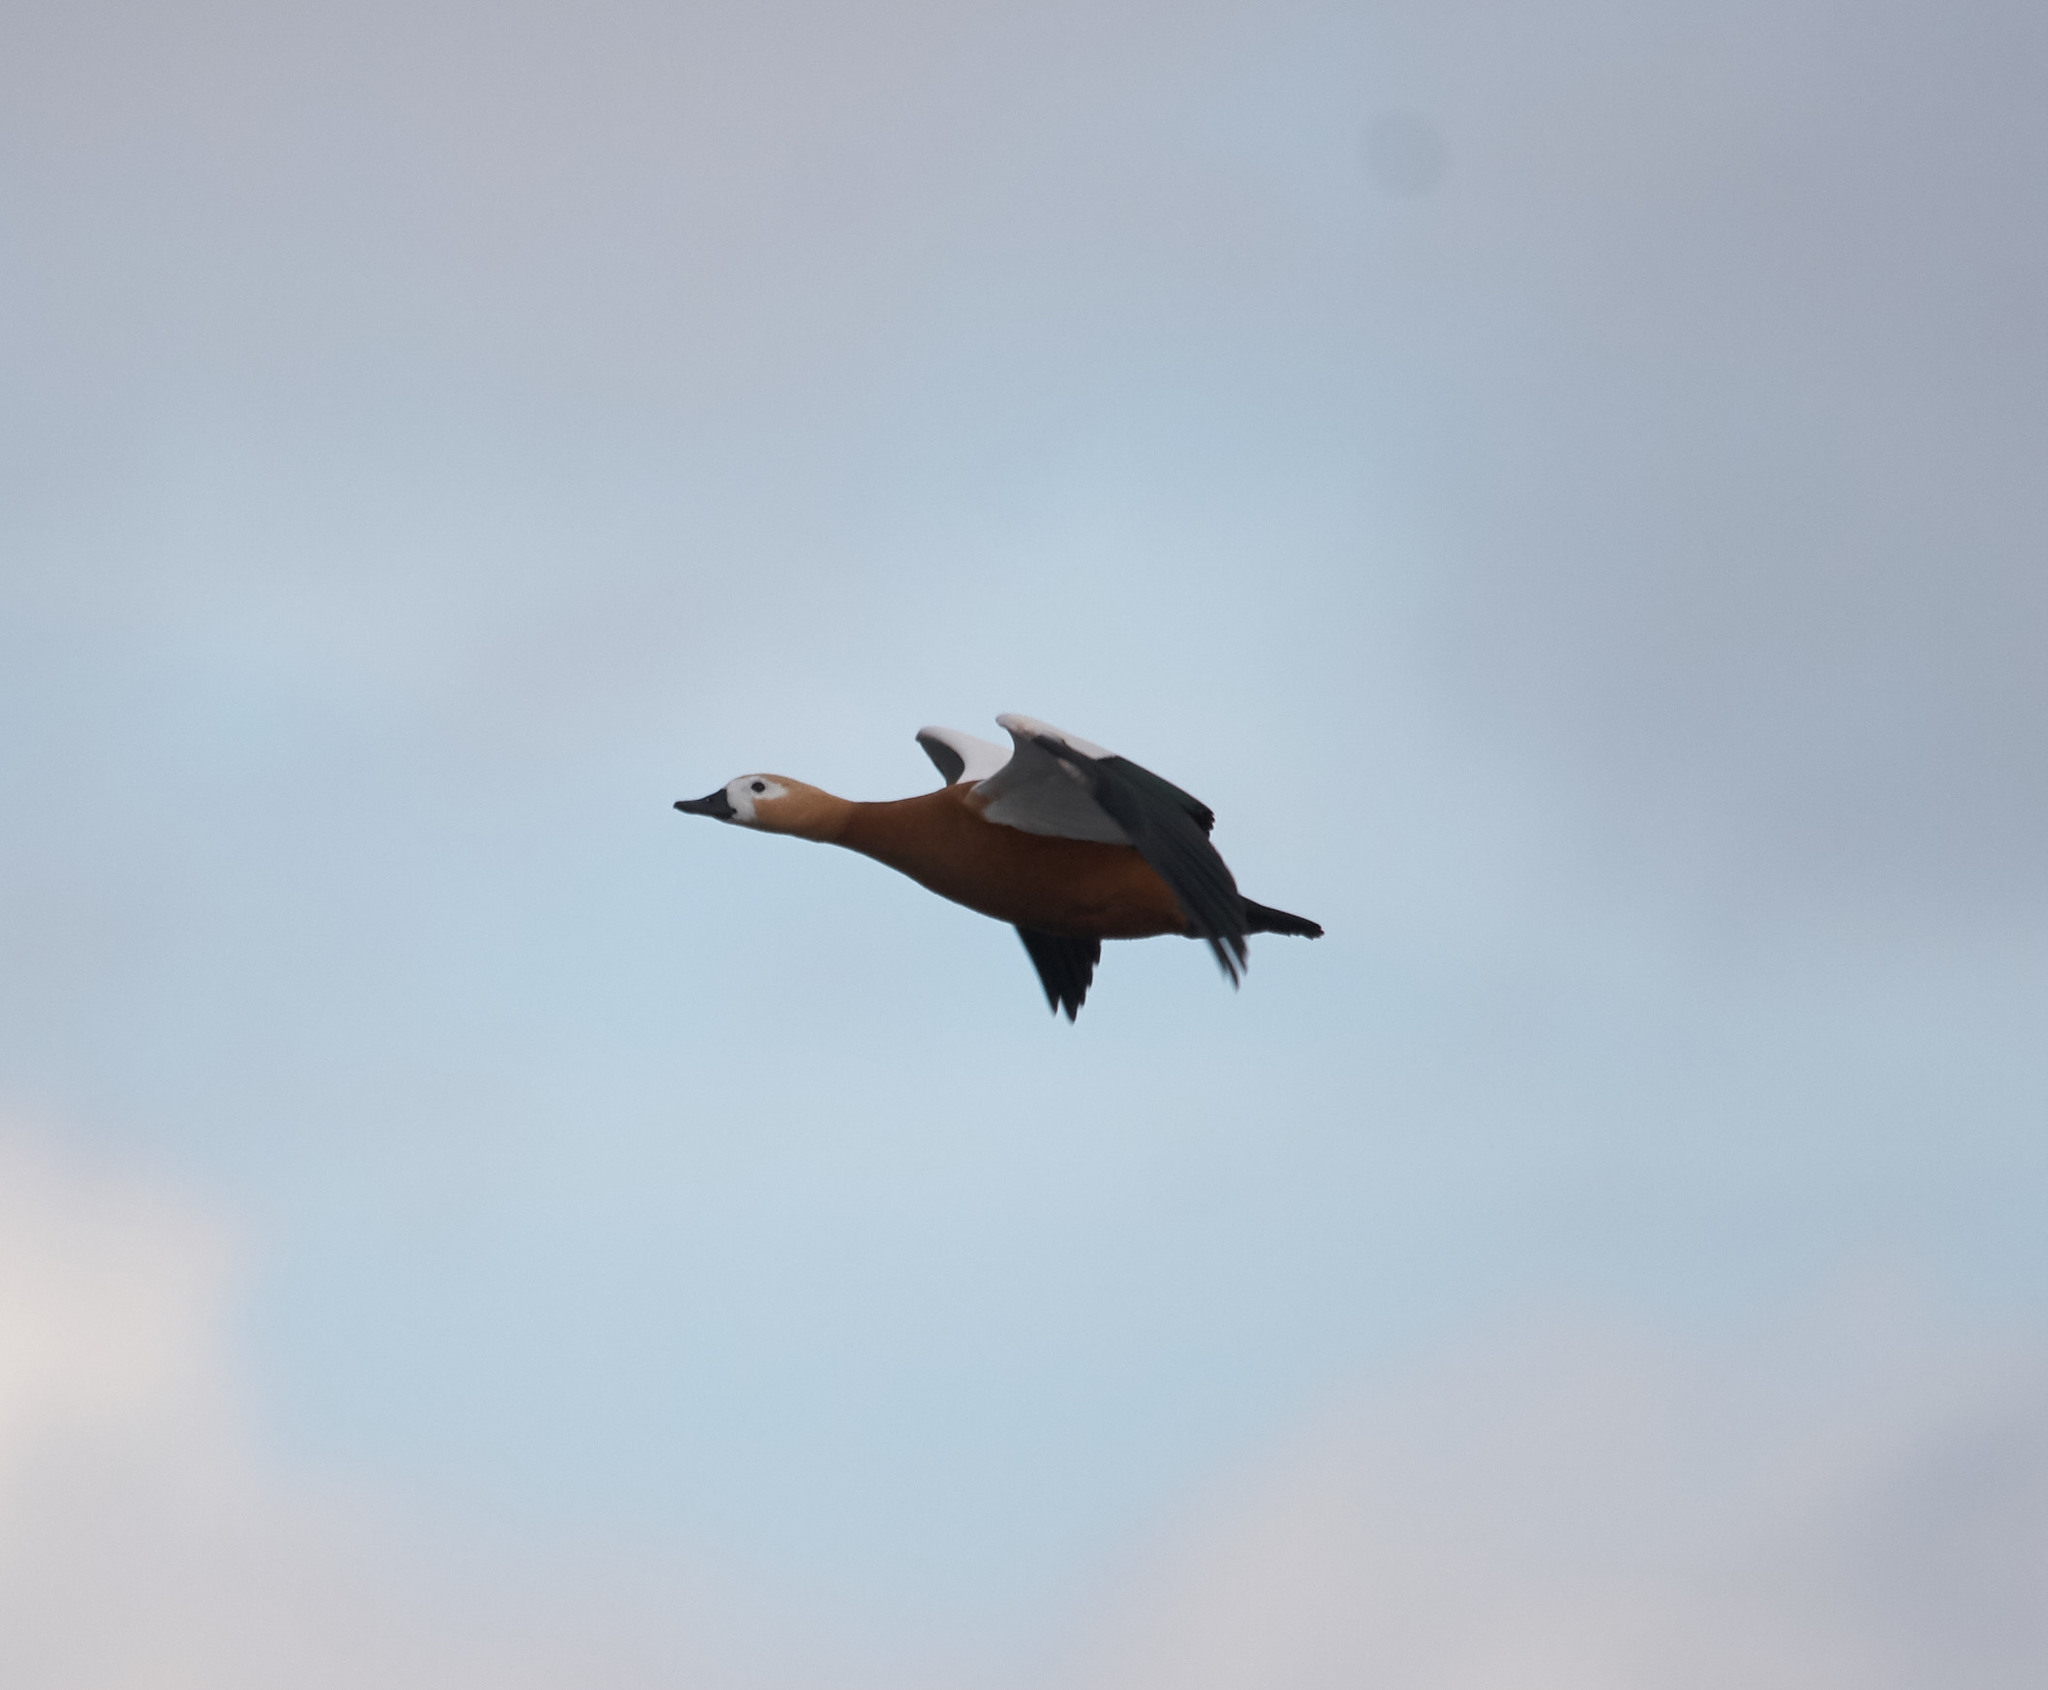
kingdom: Animalia
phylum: Chordata
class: Aves
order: Anseriformes
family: Anatidae
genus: Tadorna
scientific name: Tadorna ferruginea
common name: Ruddy shelduck
